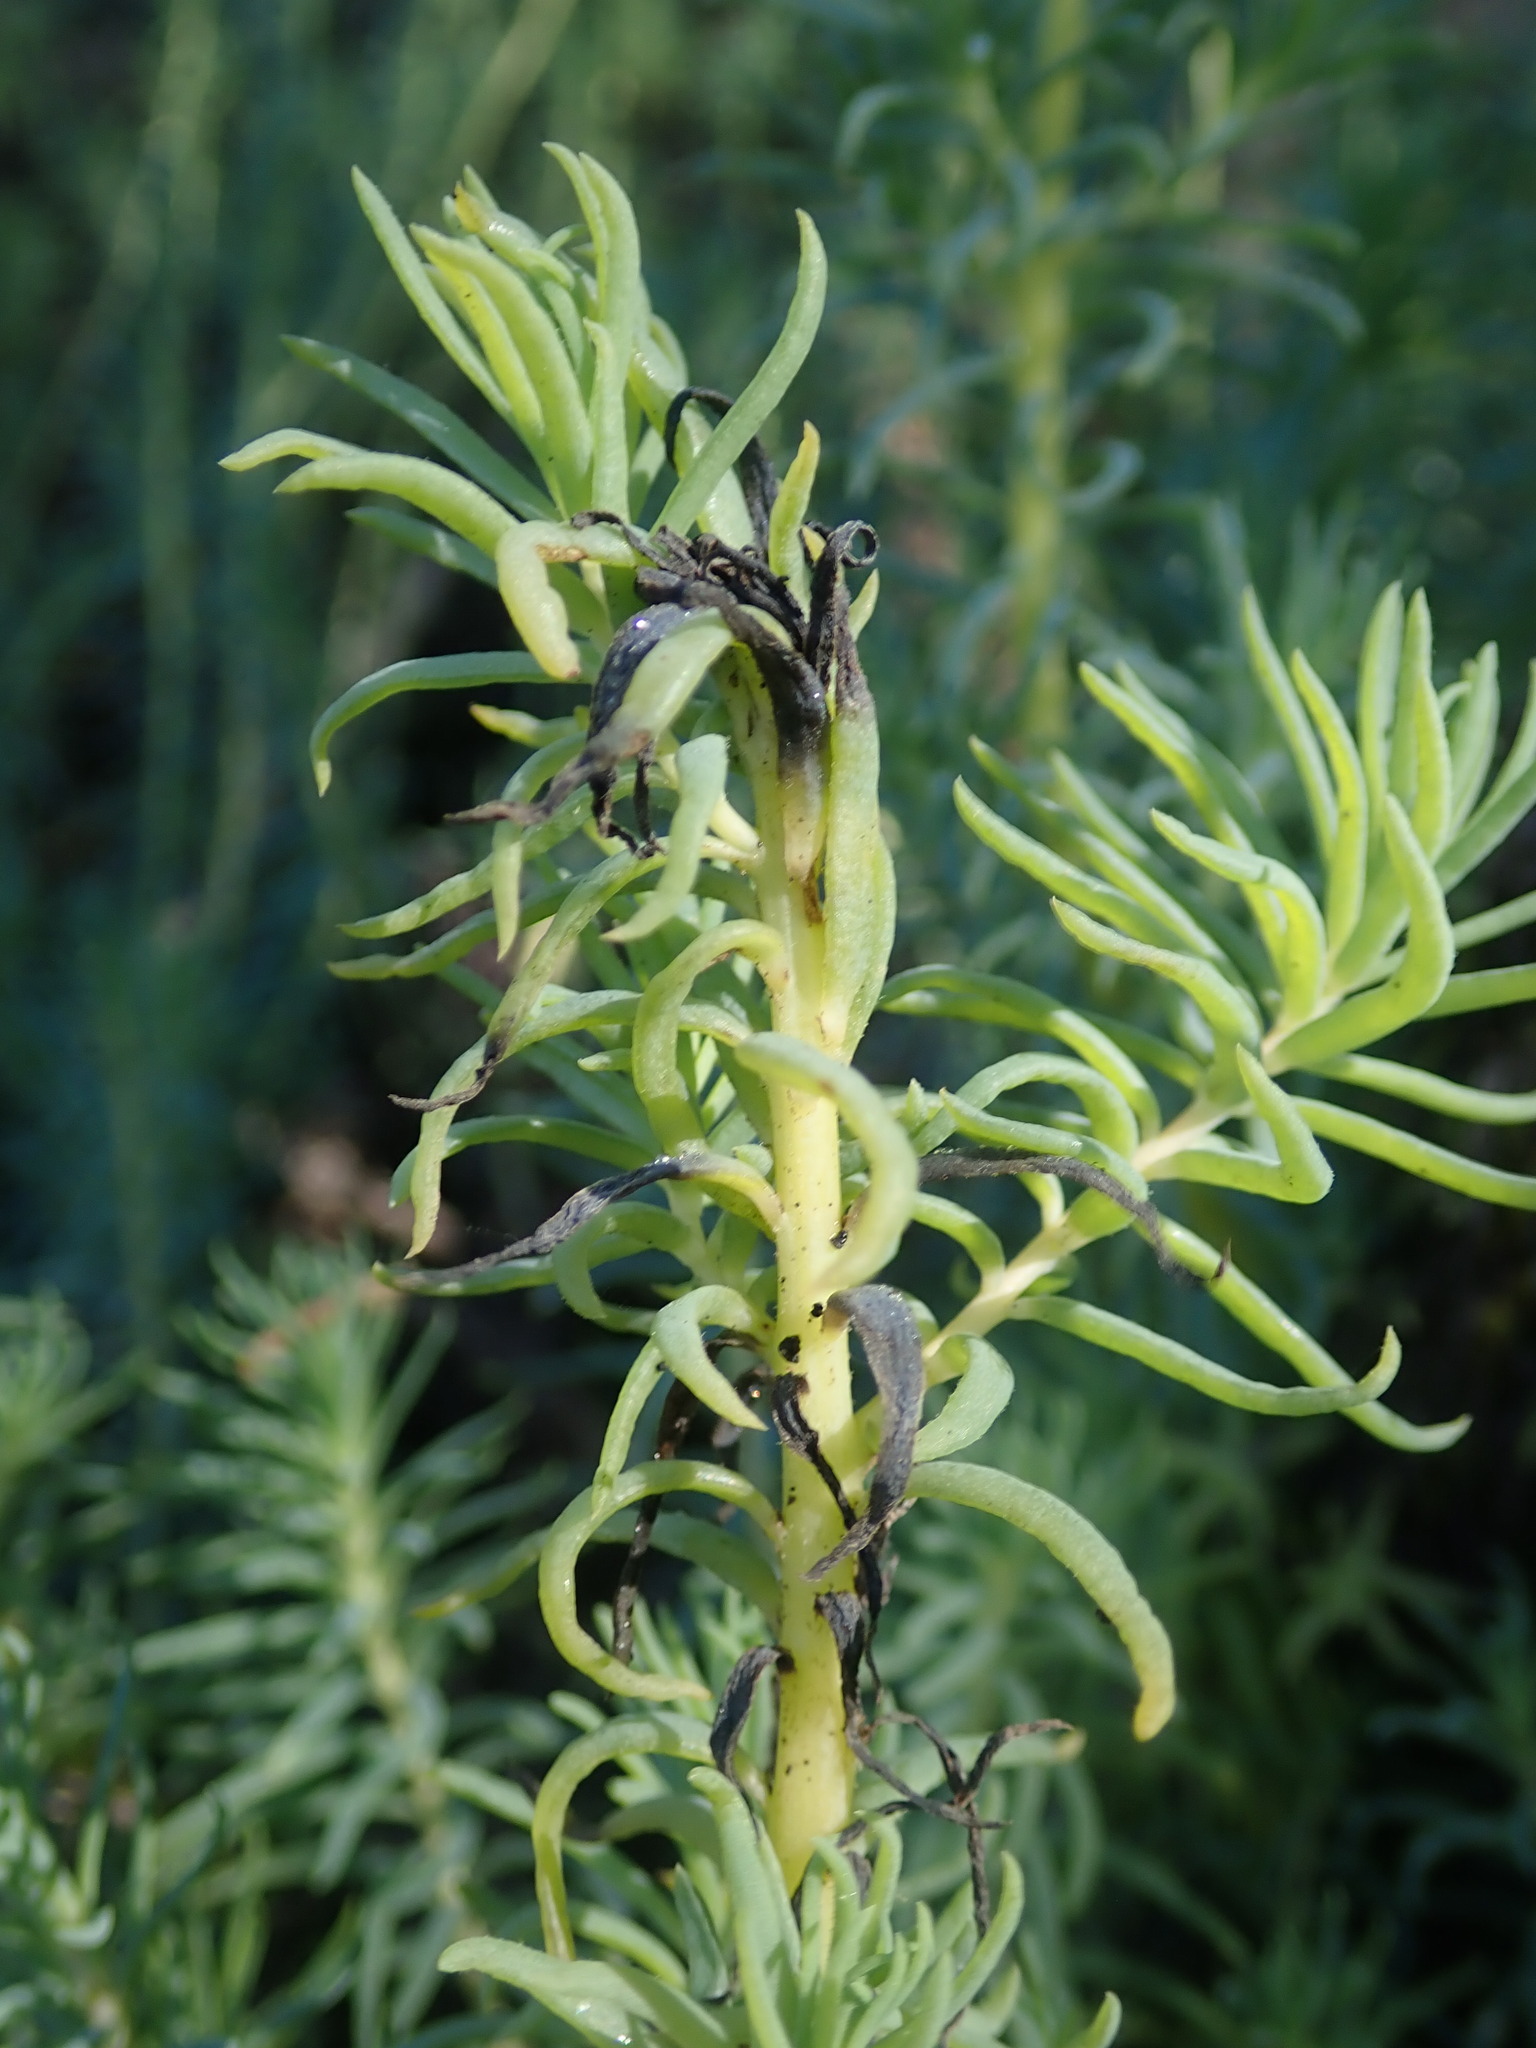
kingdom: Plantae
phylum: Tracheophyta
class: Magnoliopsida
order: Caryophyllales
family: Amaranthaceae
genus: Suaeda
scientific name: Suaeda californica
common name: California sea-blite
